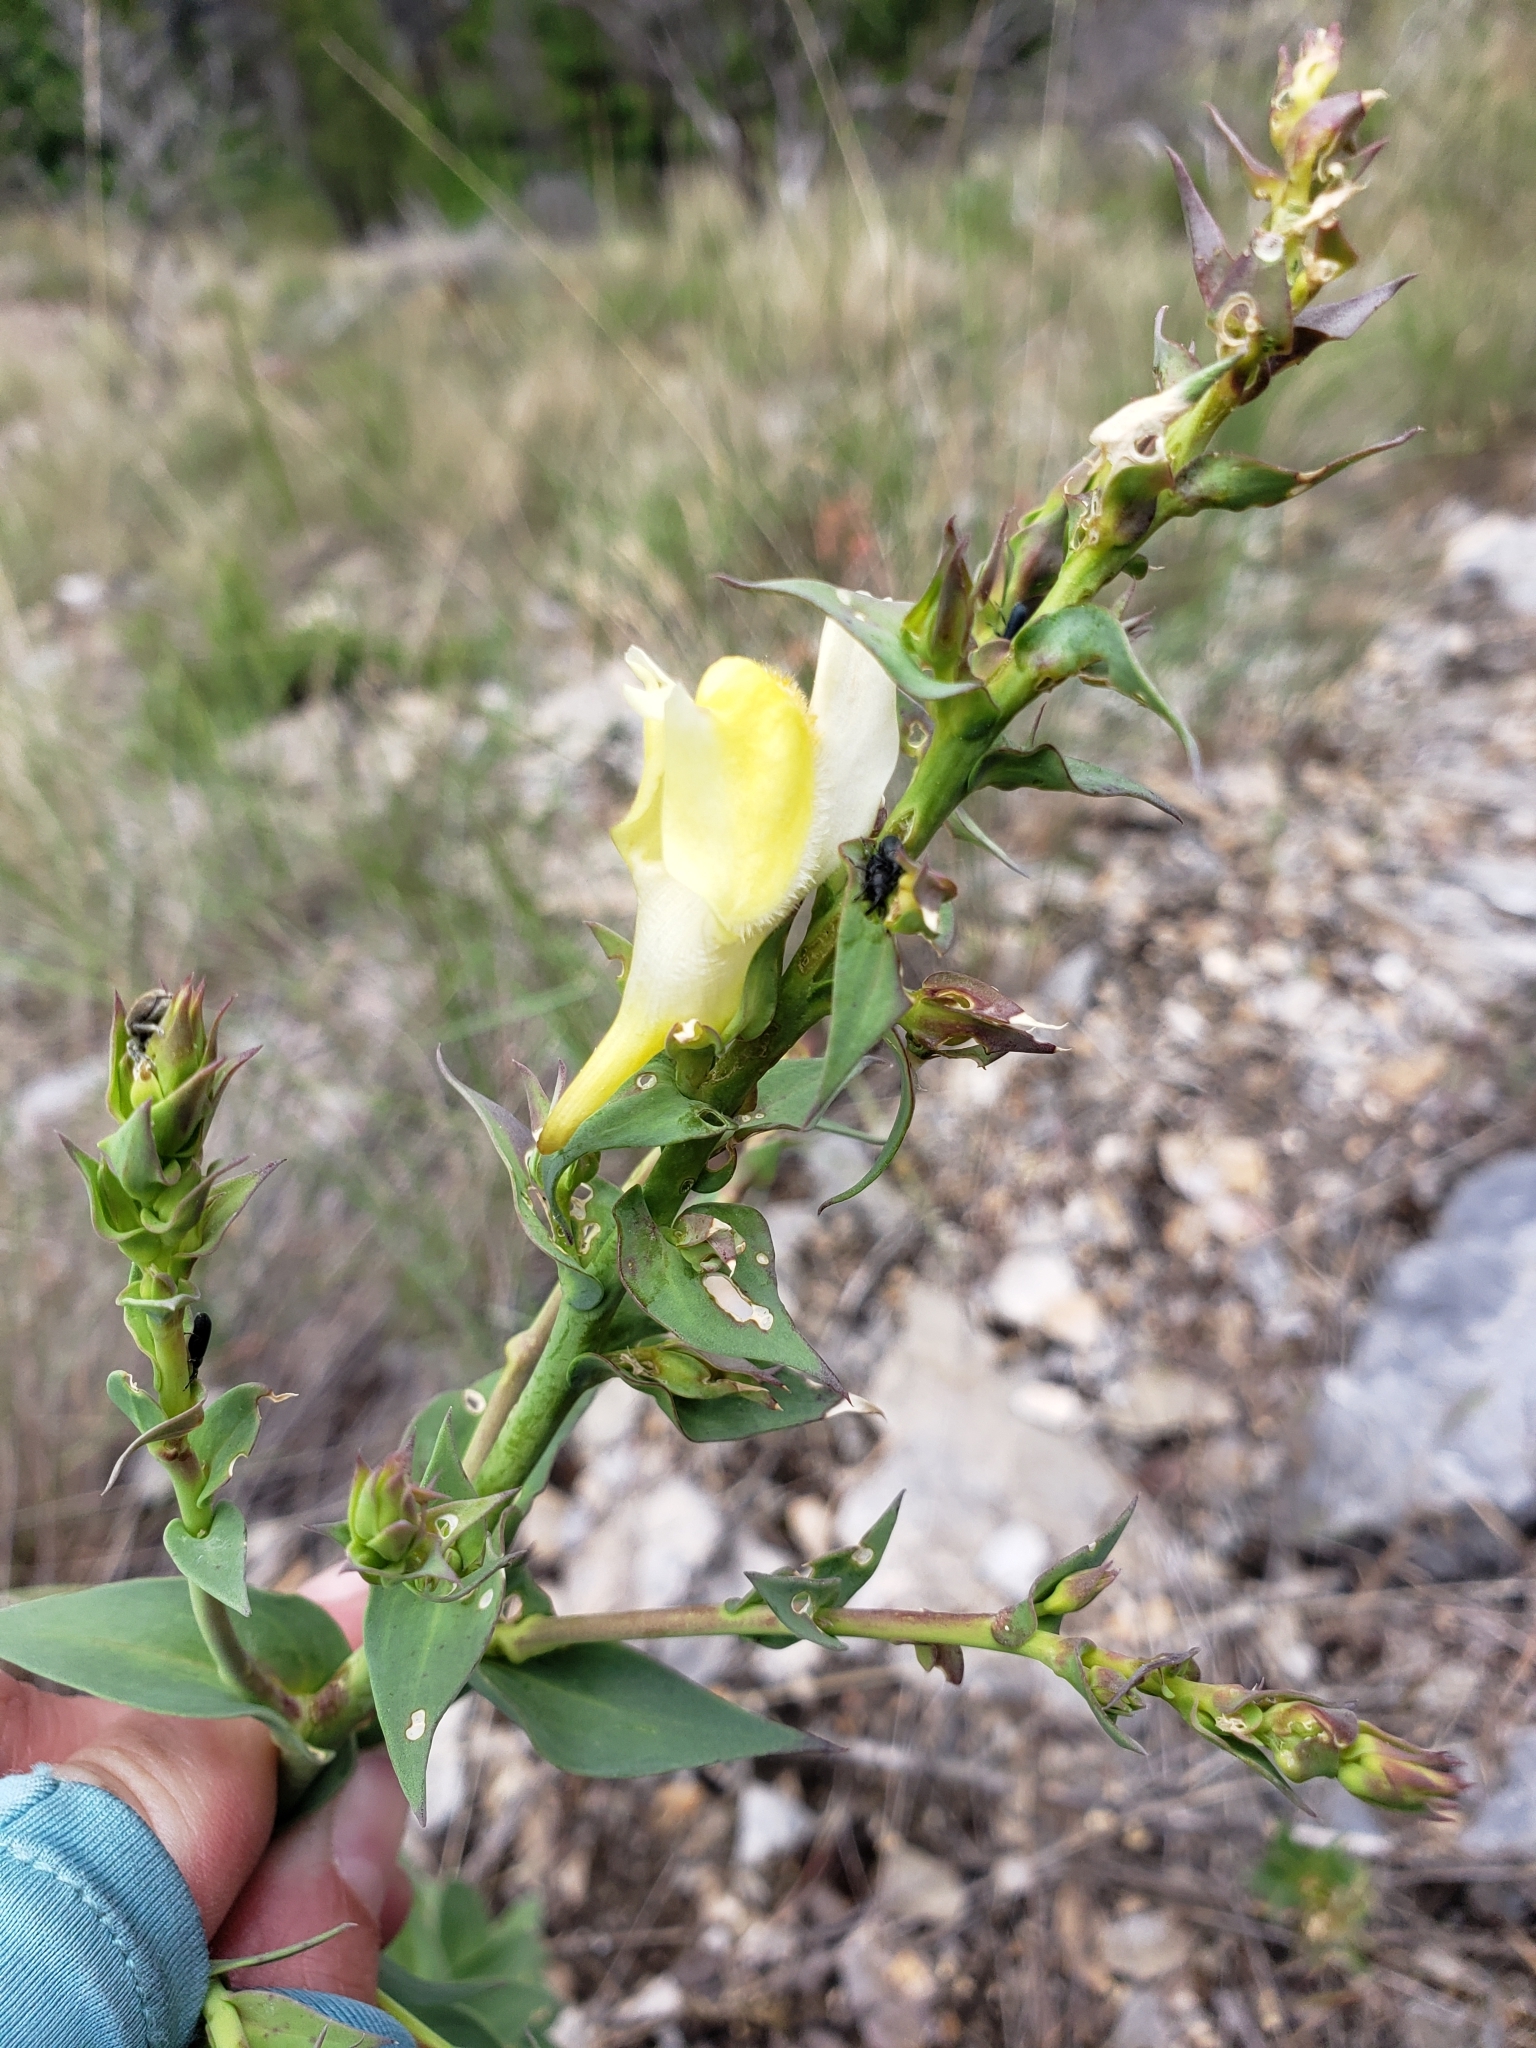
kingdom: Plantae
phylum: Tracheophyta
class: Magnoliopsida
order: Lamiales
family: Plantaginaceae
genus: Linaria
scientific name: Linaria dalmatica
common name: Dalmatian toadflax
